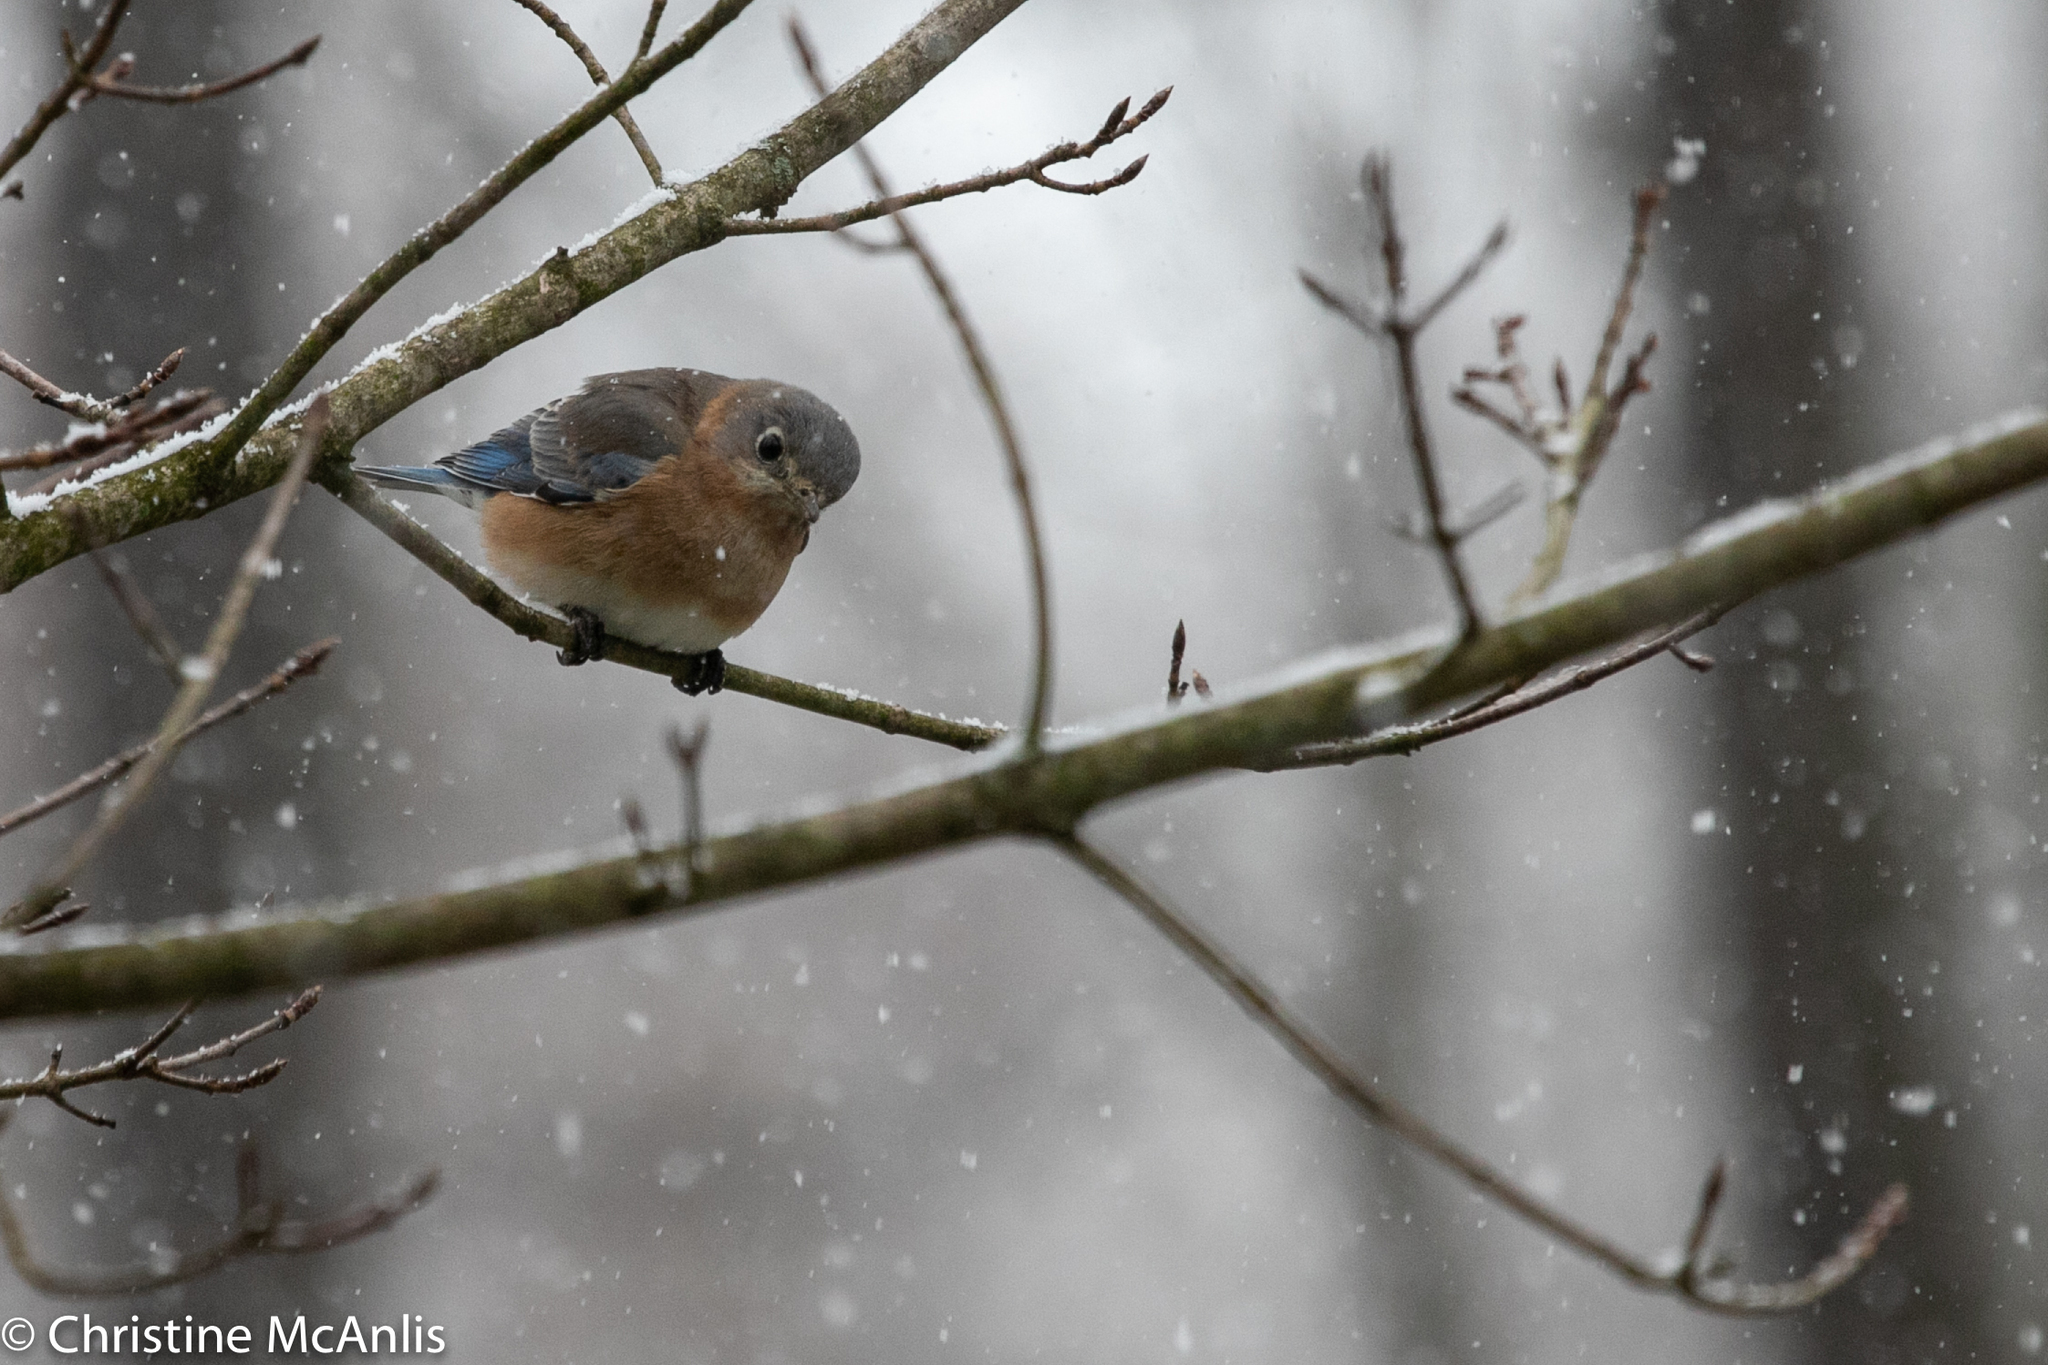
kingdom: Animalia
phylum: Chordata
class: Aves
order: Passeriformes
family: Turdidae
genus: Sialia
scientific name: Sialia sialis
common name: Eastern bluebird
